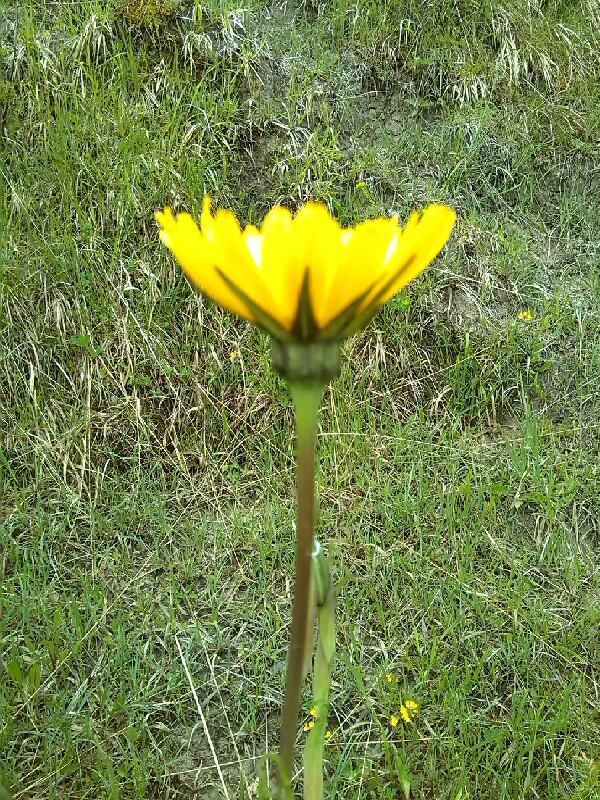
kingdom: Plantae
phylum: Tracheophyta
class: Magnoliopsida
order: Asterales
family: Asteraceae
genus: Tragopogon
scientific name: Tragopogon pratensis
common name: Goat's-beard
